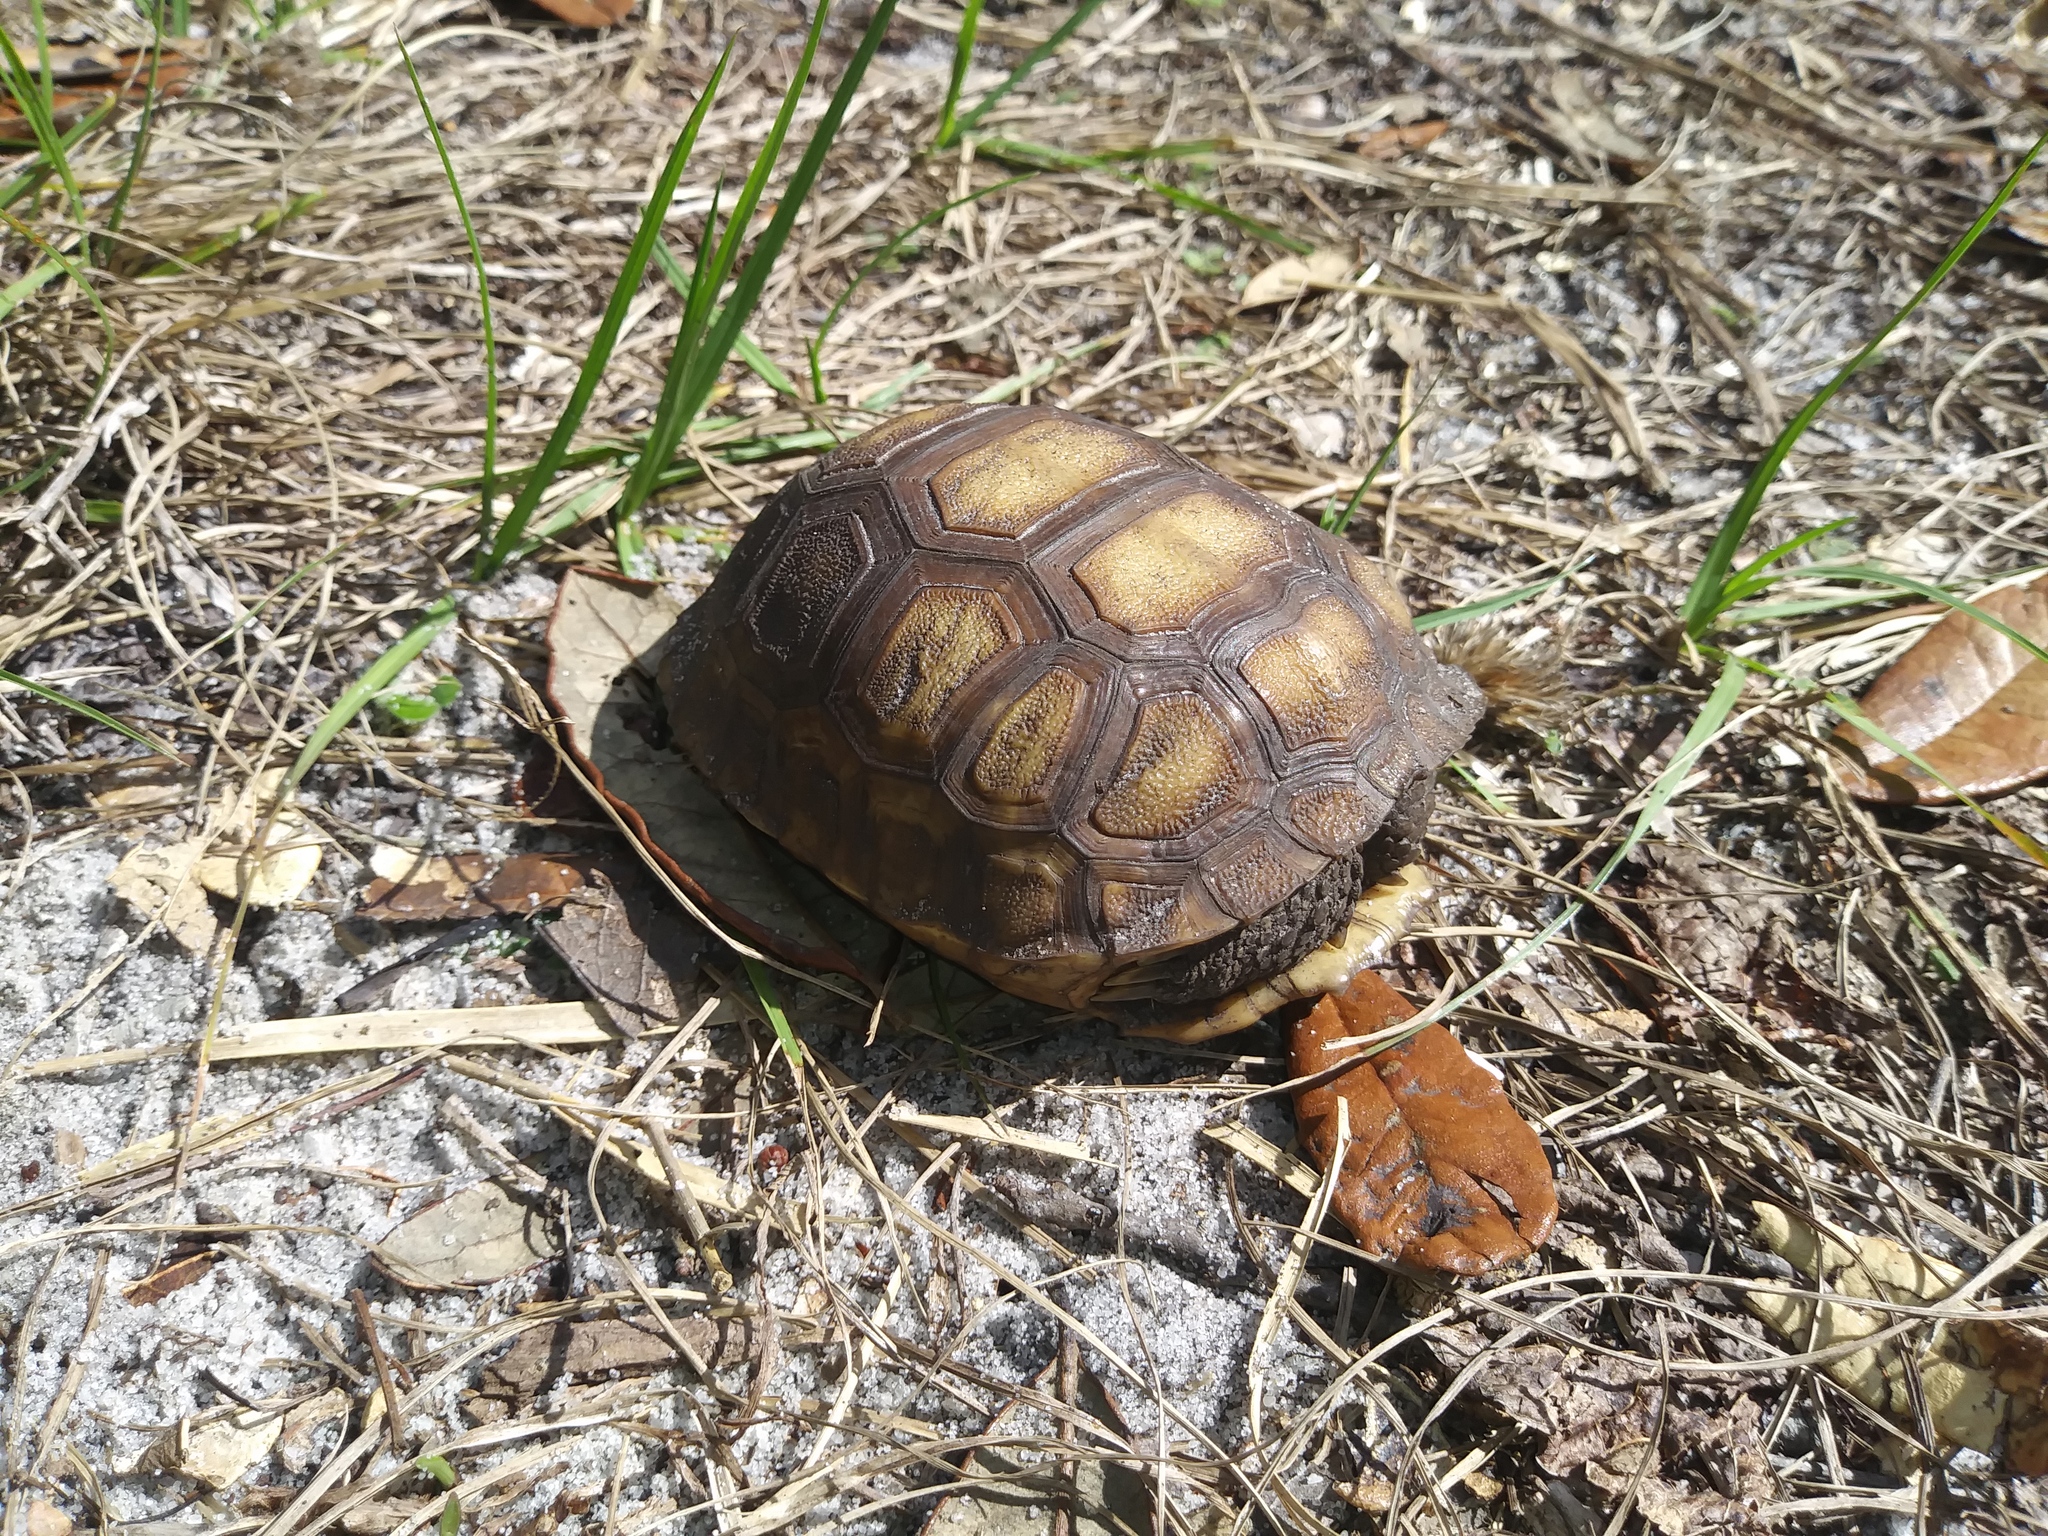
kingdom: Animalia
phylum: Chordata
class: Testudines
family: Testudinidae
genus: Gopherus
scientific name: Gopherus polyphemus
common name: Florida gopher tortoise
